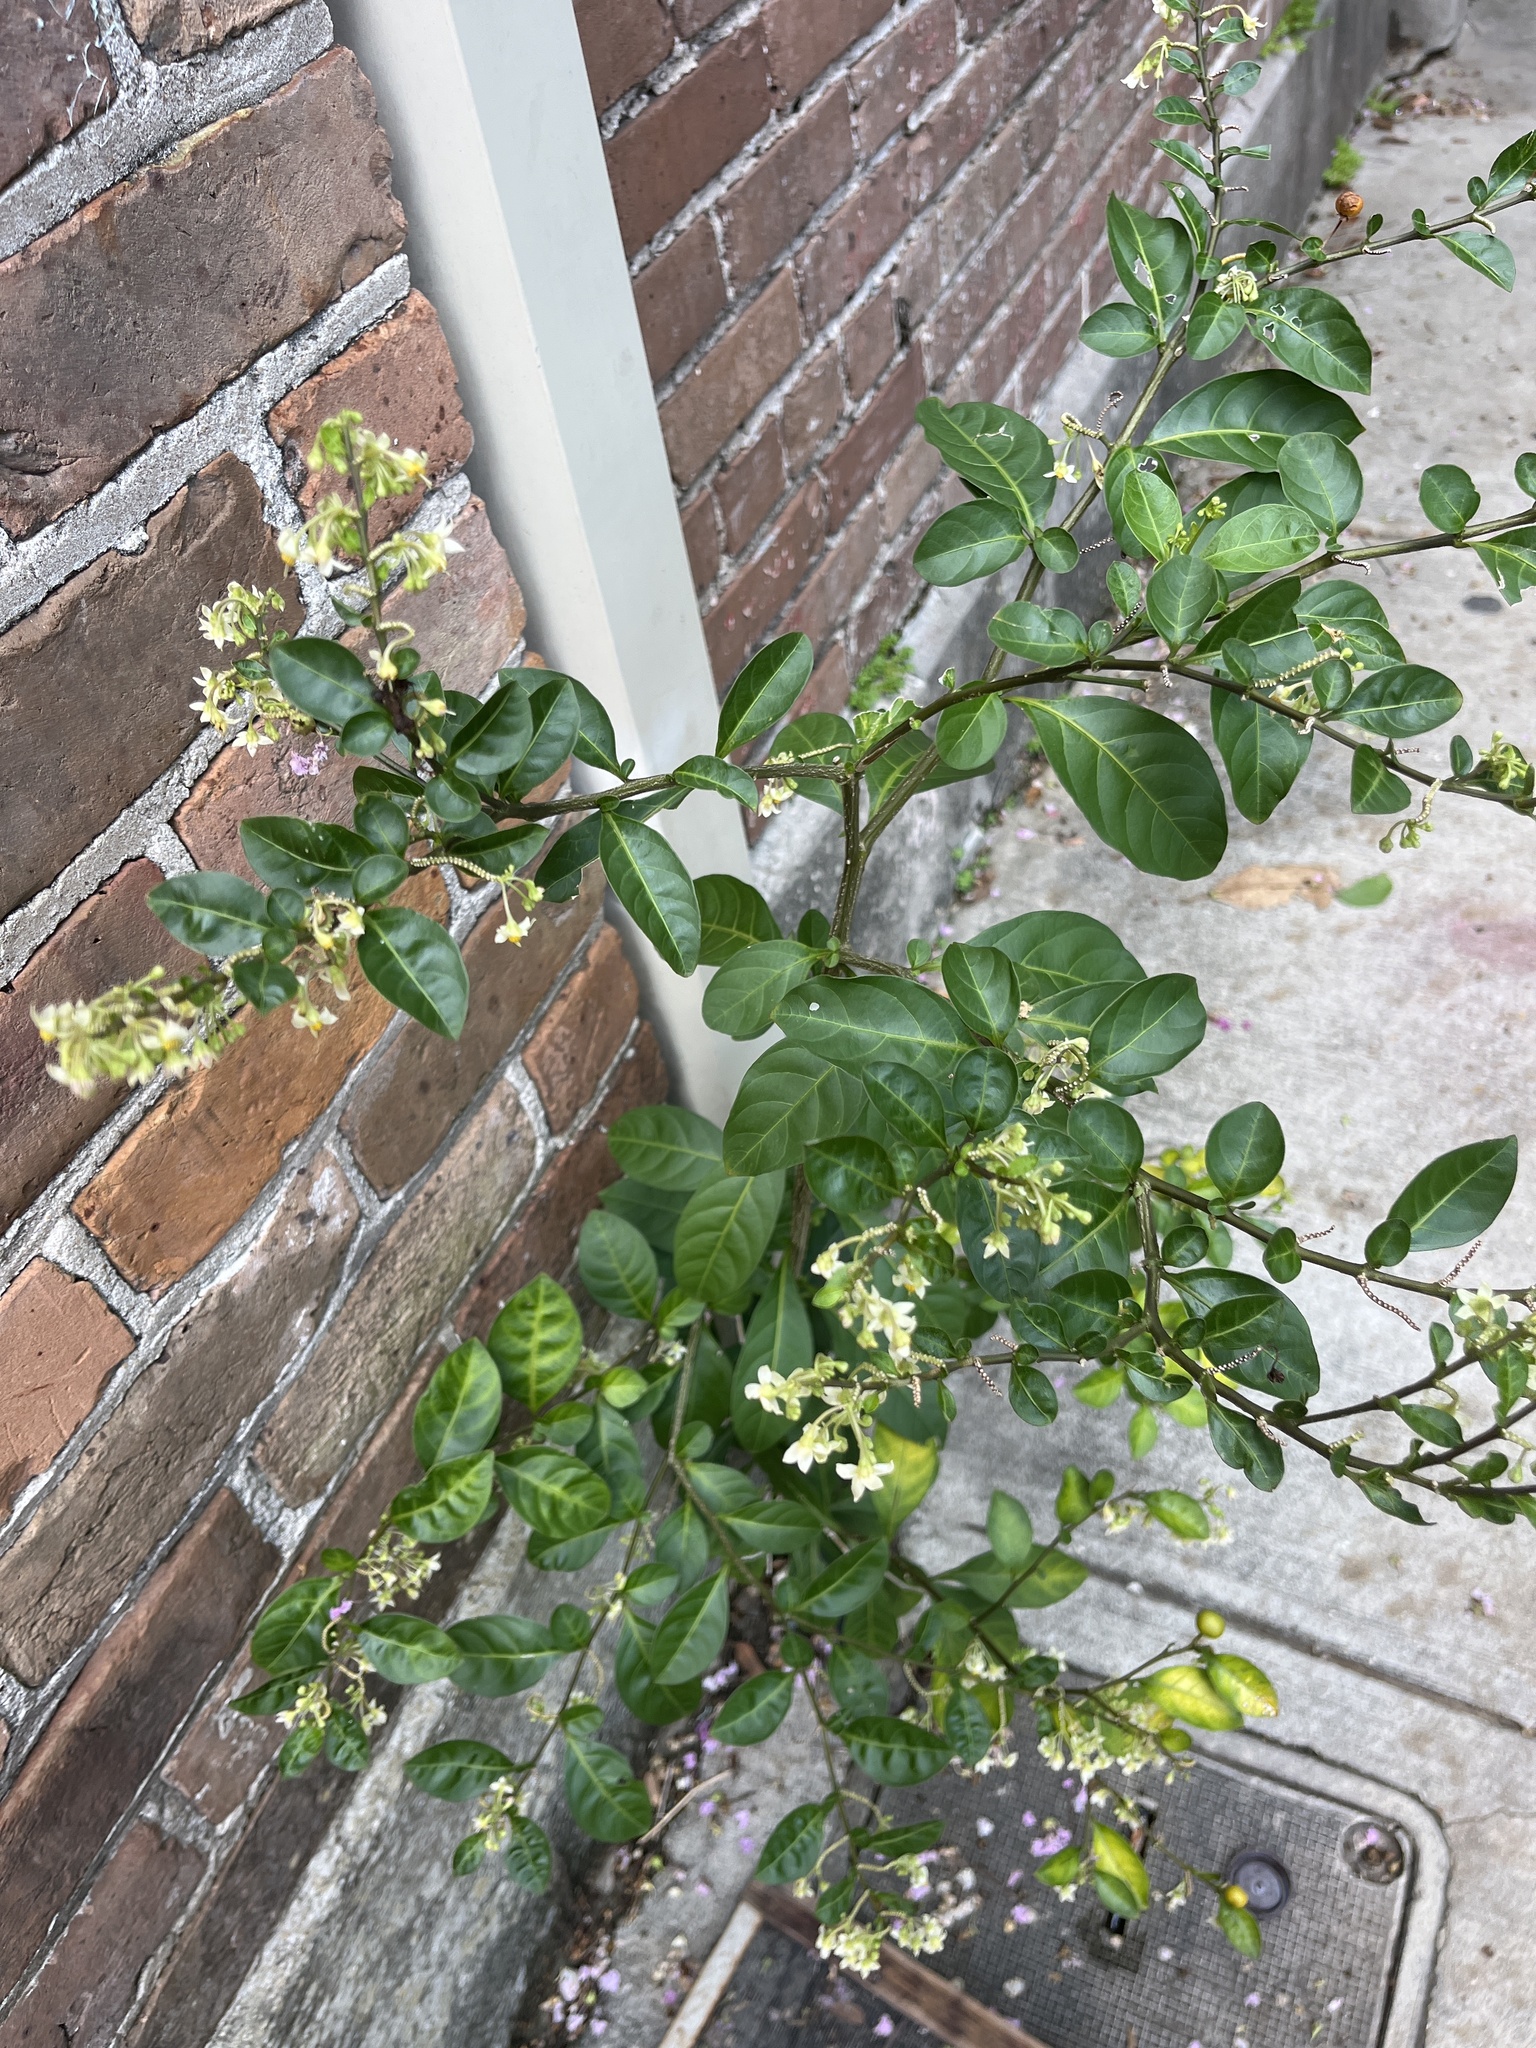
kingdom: Plantae
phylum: Tracheophyta
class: Magnoliopsida
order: Solanales
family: Solanaceae
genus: Solanum
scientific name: Solanum diphyllum
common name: Twoleaf nightshade
